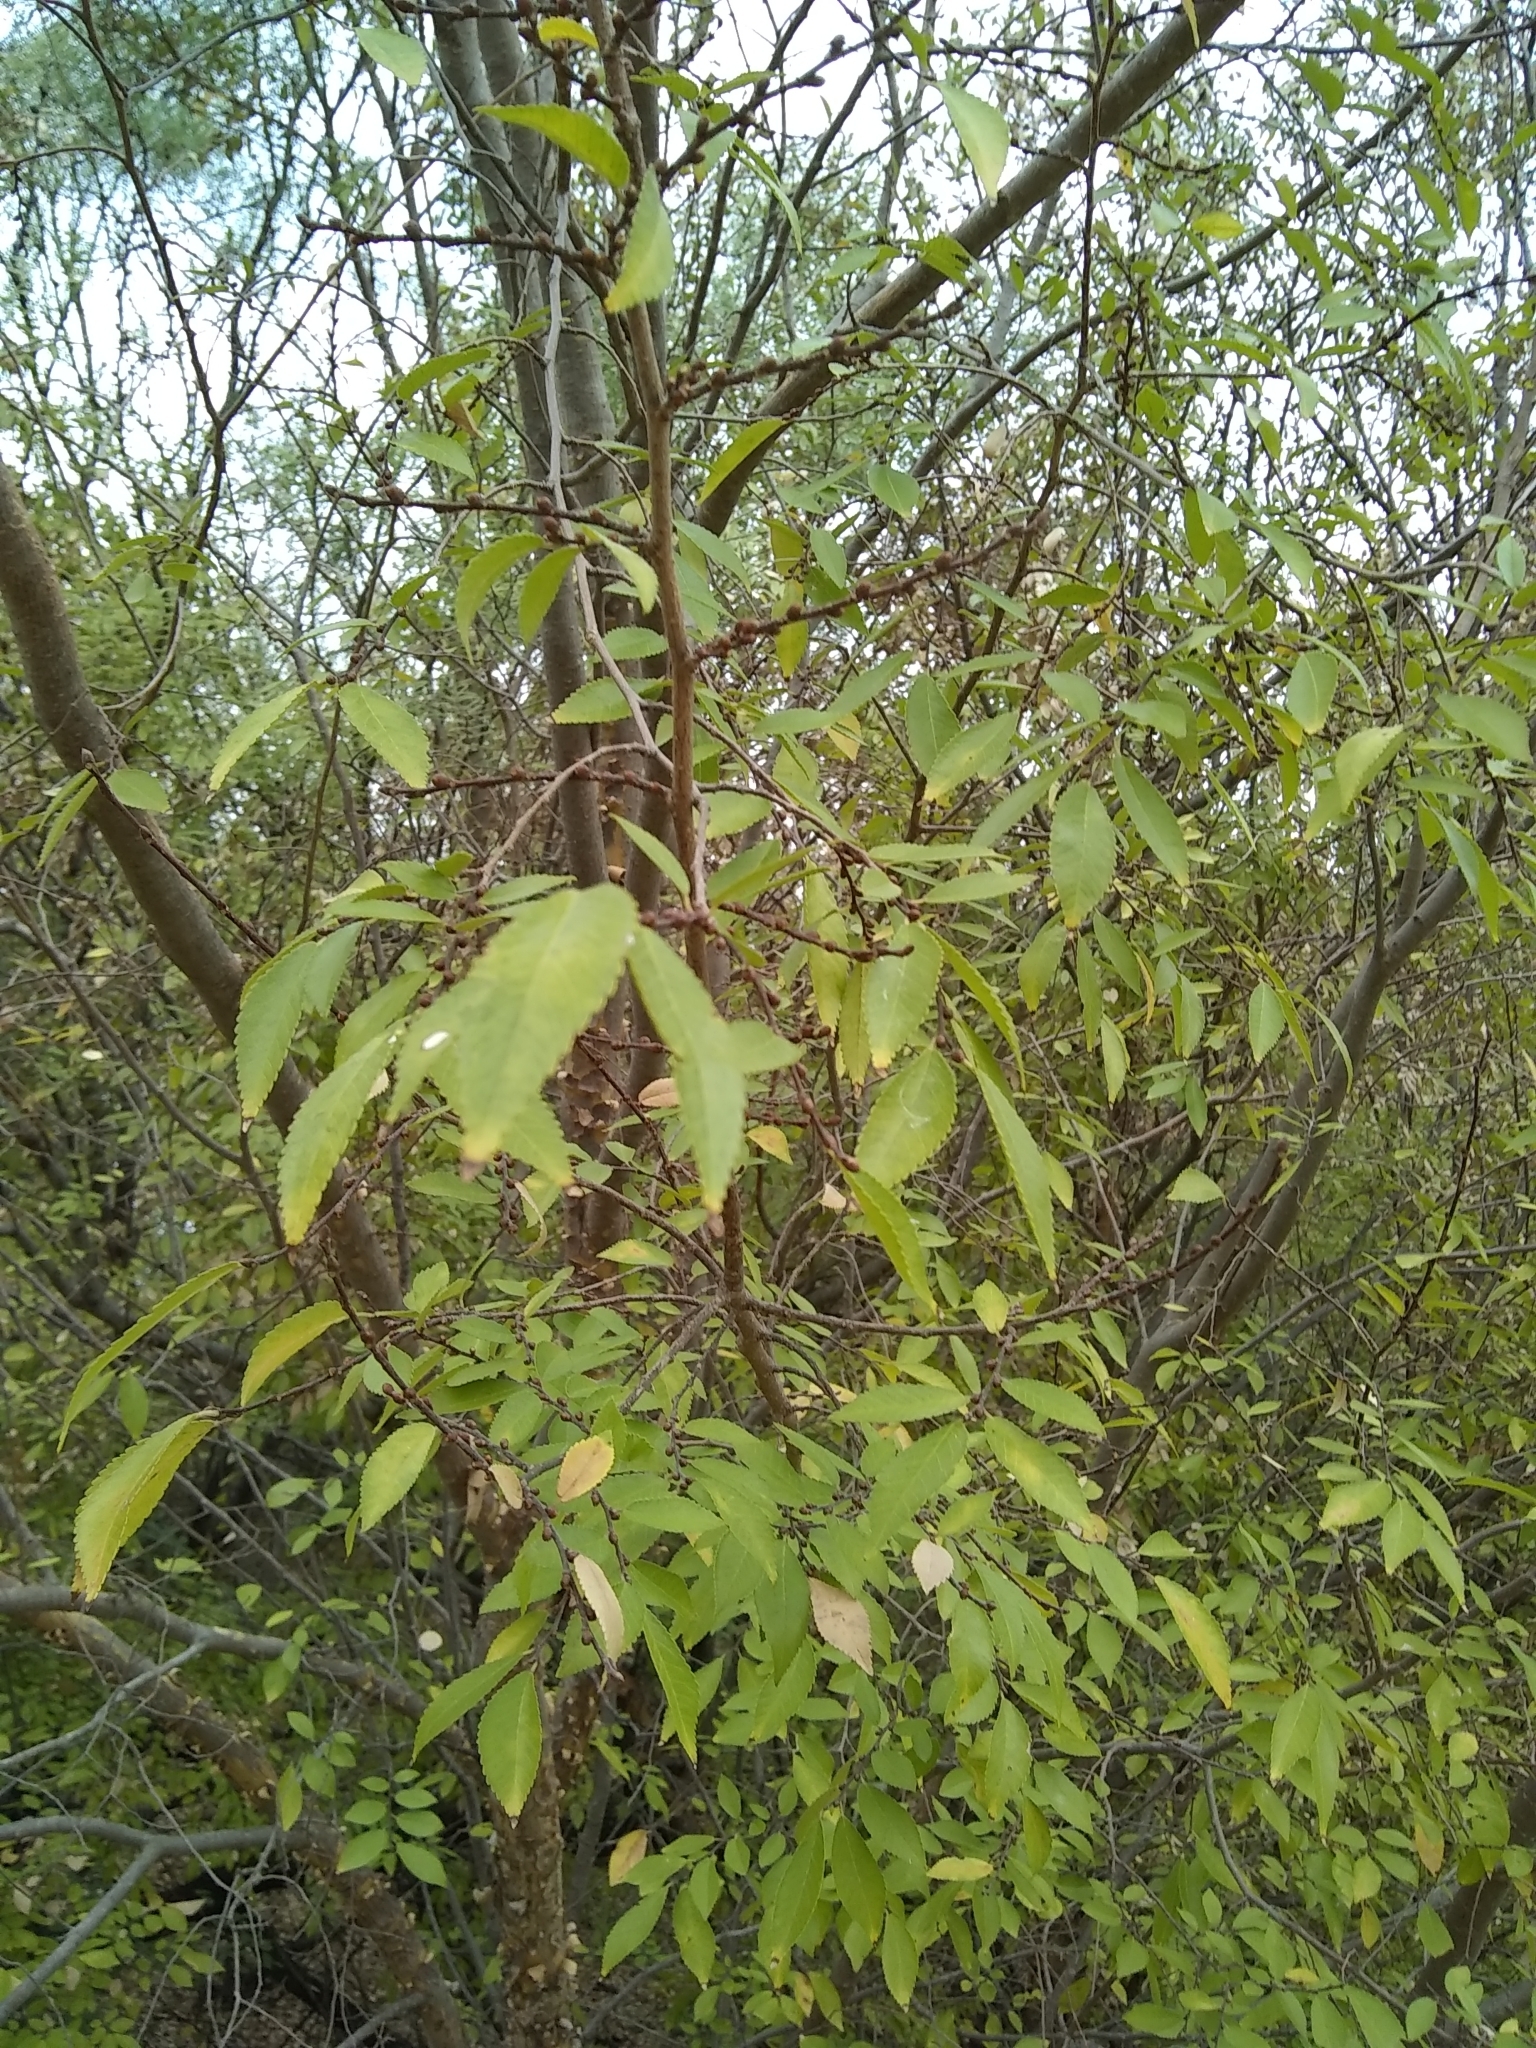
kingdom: Plantae
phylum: Tracheophyta
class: Magnoliopsida
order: Rosales
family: Ulmaceae
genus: Ulmus
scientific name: Ulmus parvifolia
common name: Chinese elm
